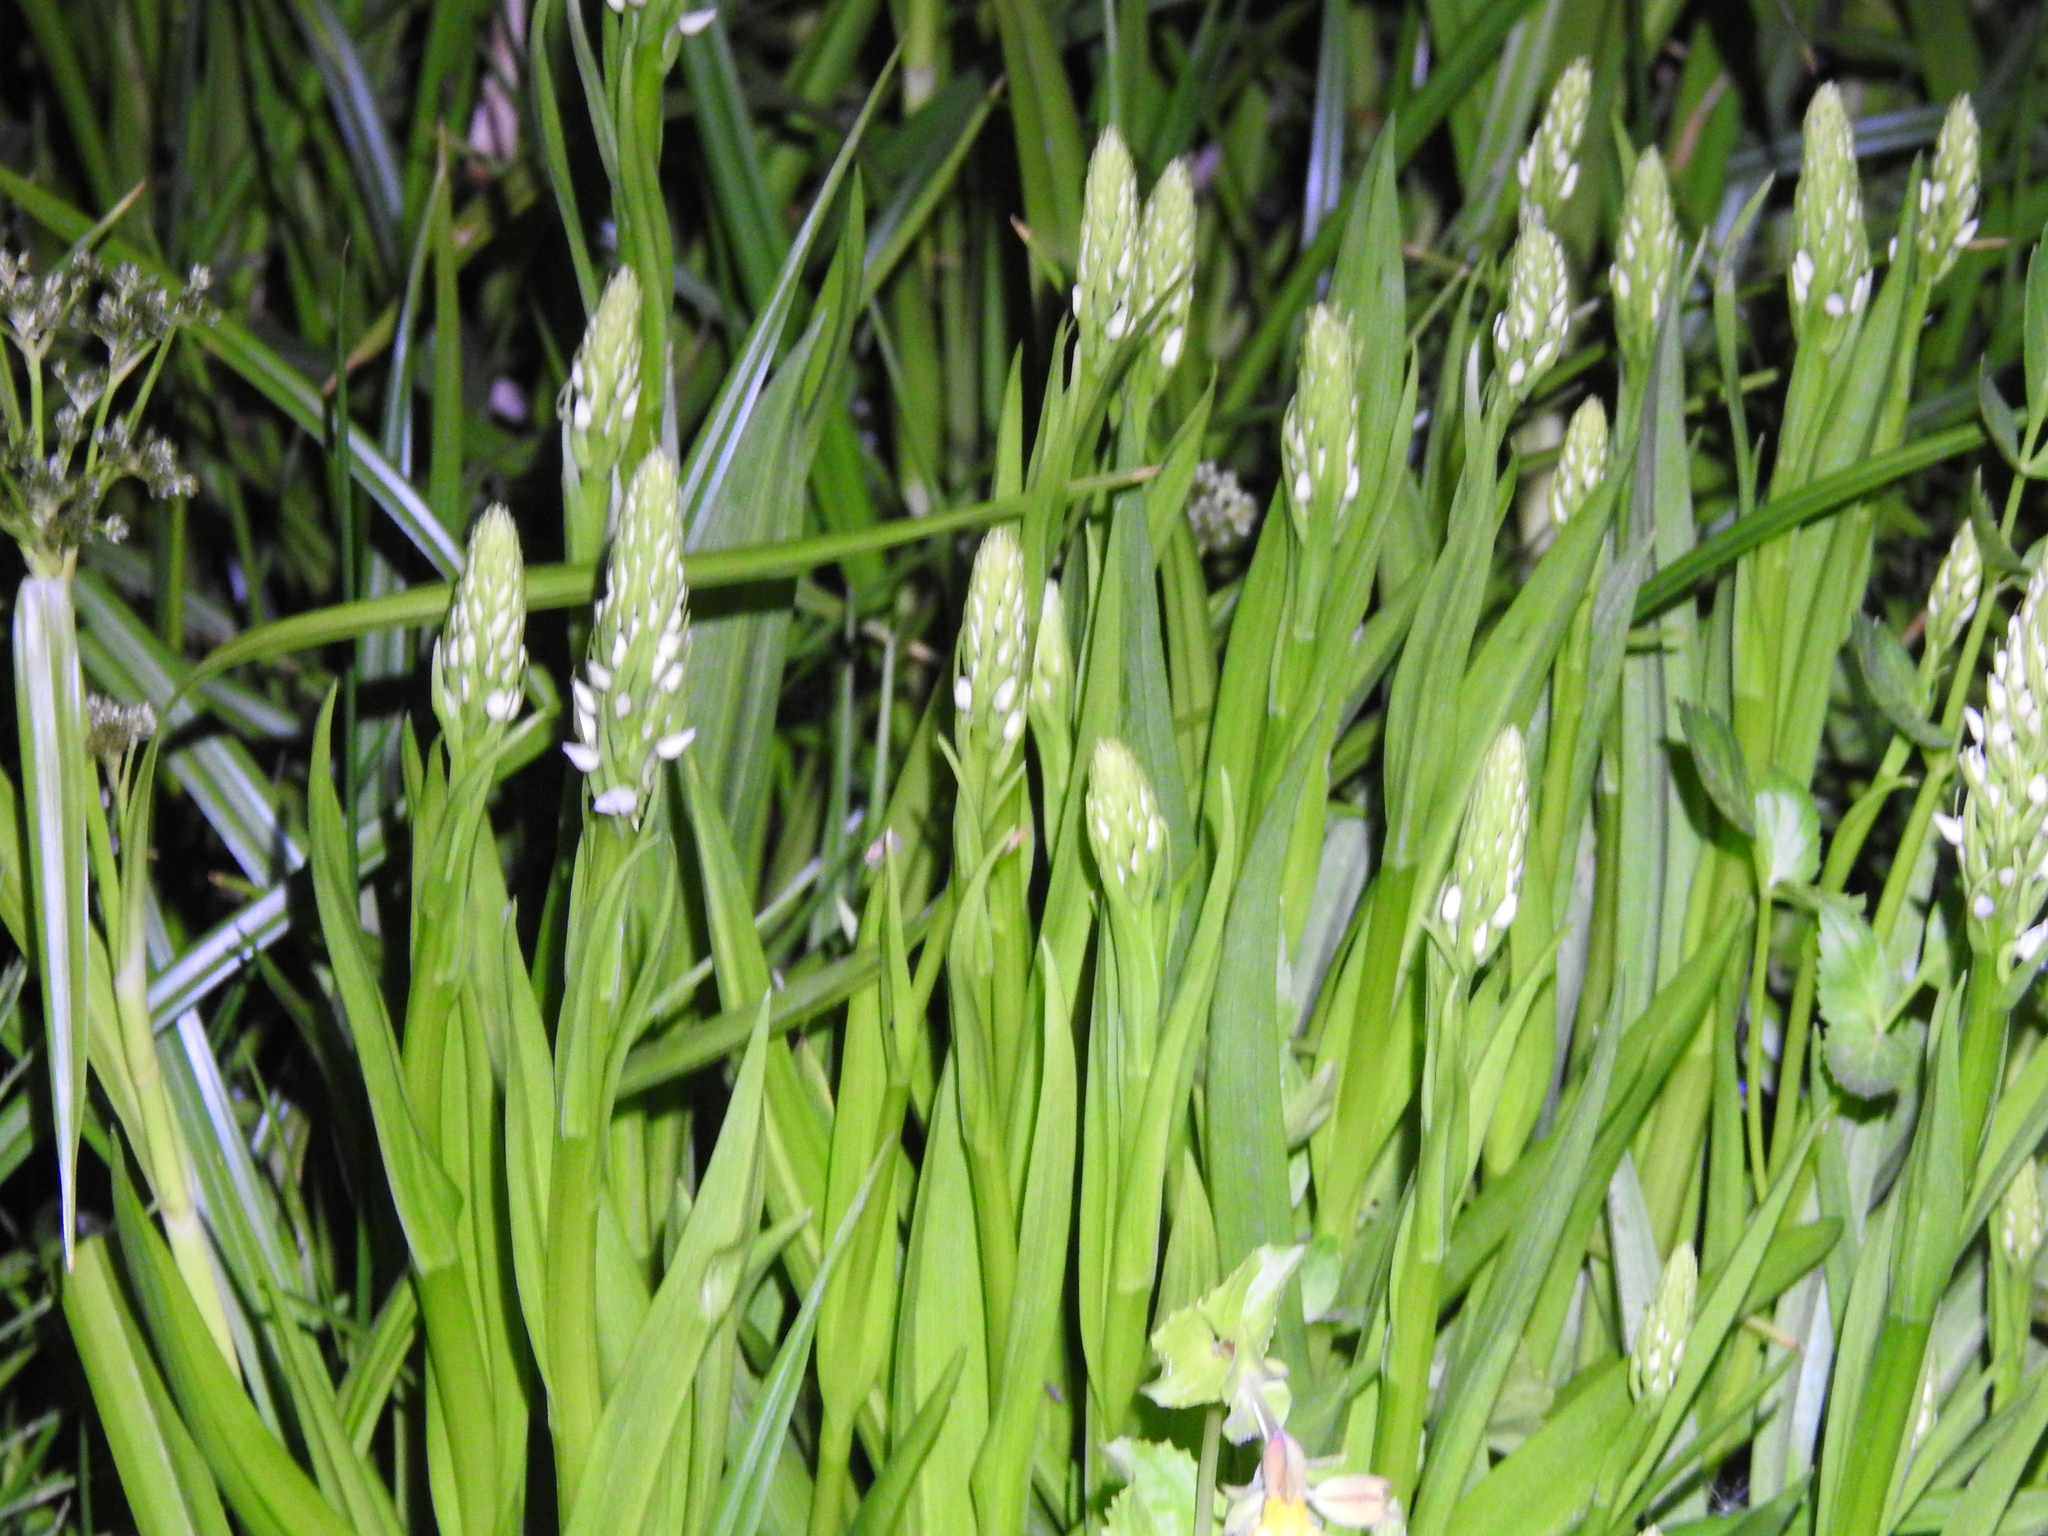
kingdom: Plantae
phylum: Tracheophyta
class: Liliopsida
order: Asparagales
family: Orchidaceae
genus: Platanthera
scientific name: Platanthera dilatata
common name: Bog candles
